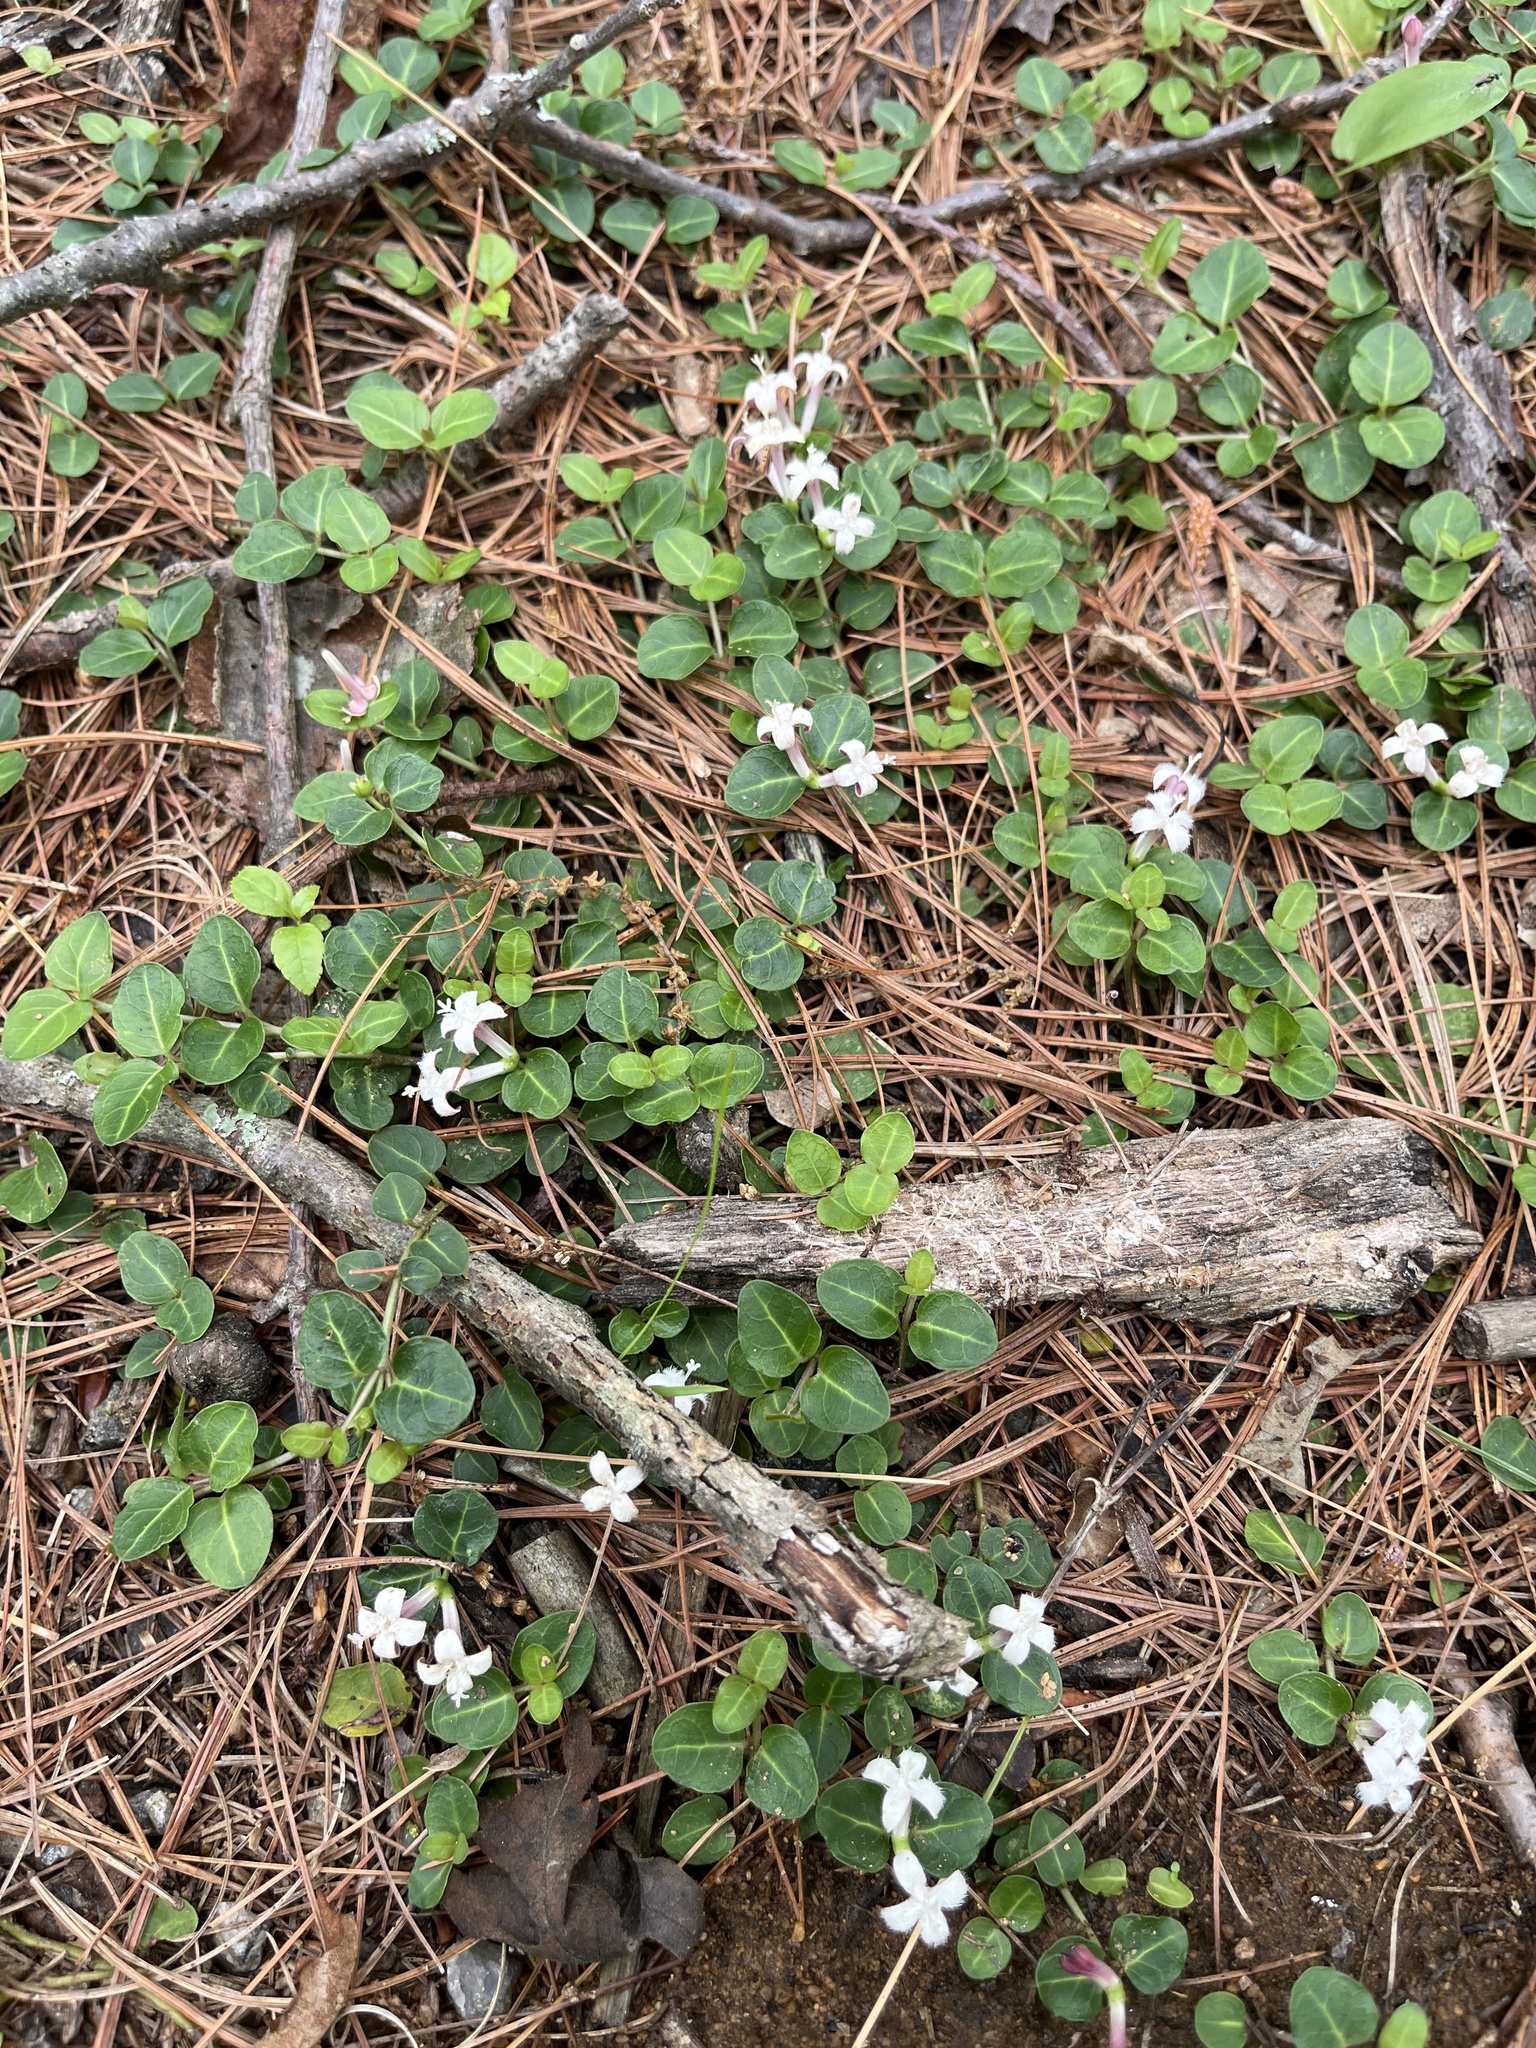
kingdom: Plantae
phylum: Tracheophyta
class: Magnoliopsida
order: Gentianales
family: Rubiaceae
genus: Mitchella
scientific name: Mitchella repens
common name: Partridge-berry
